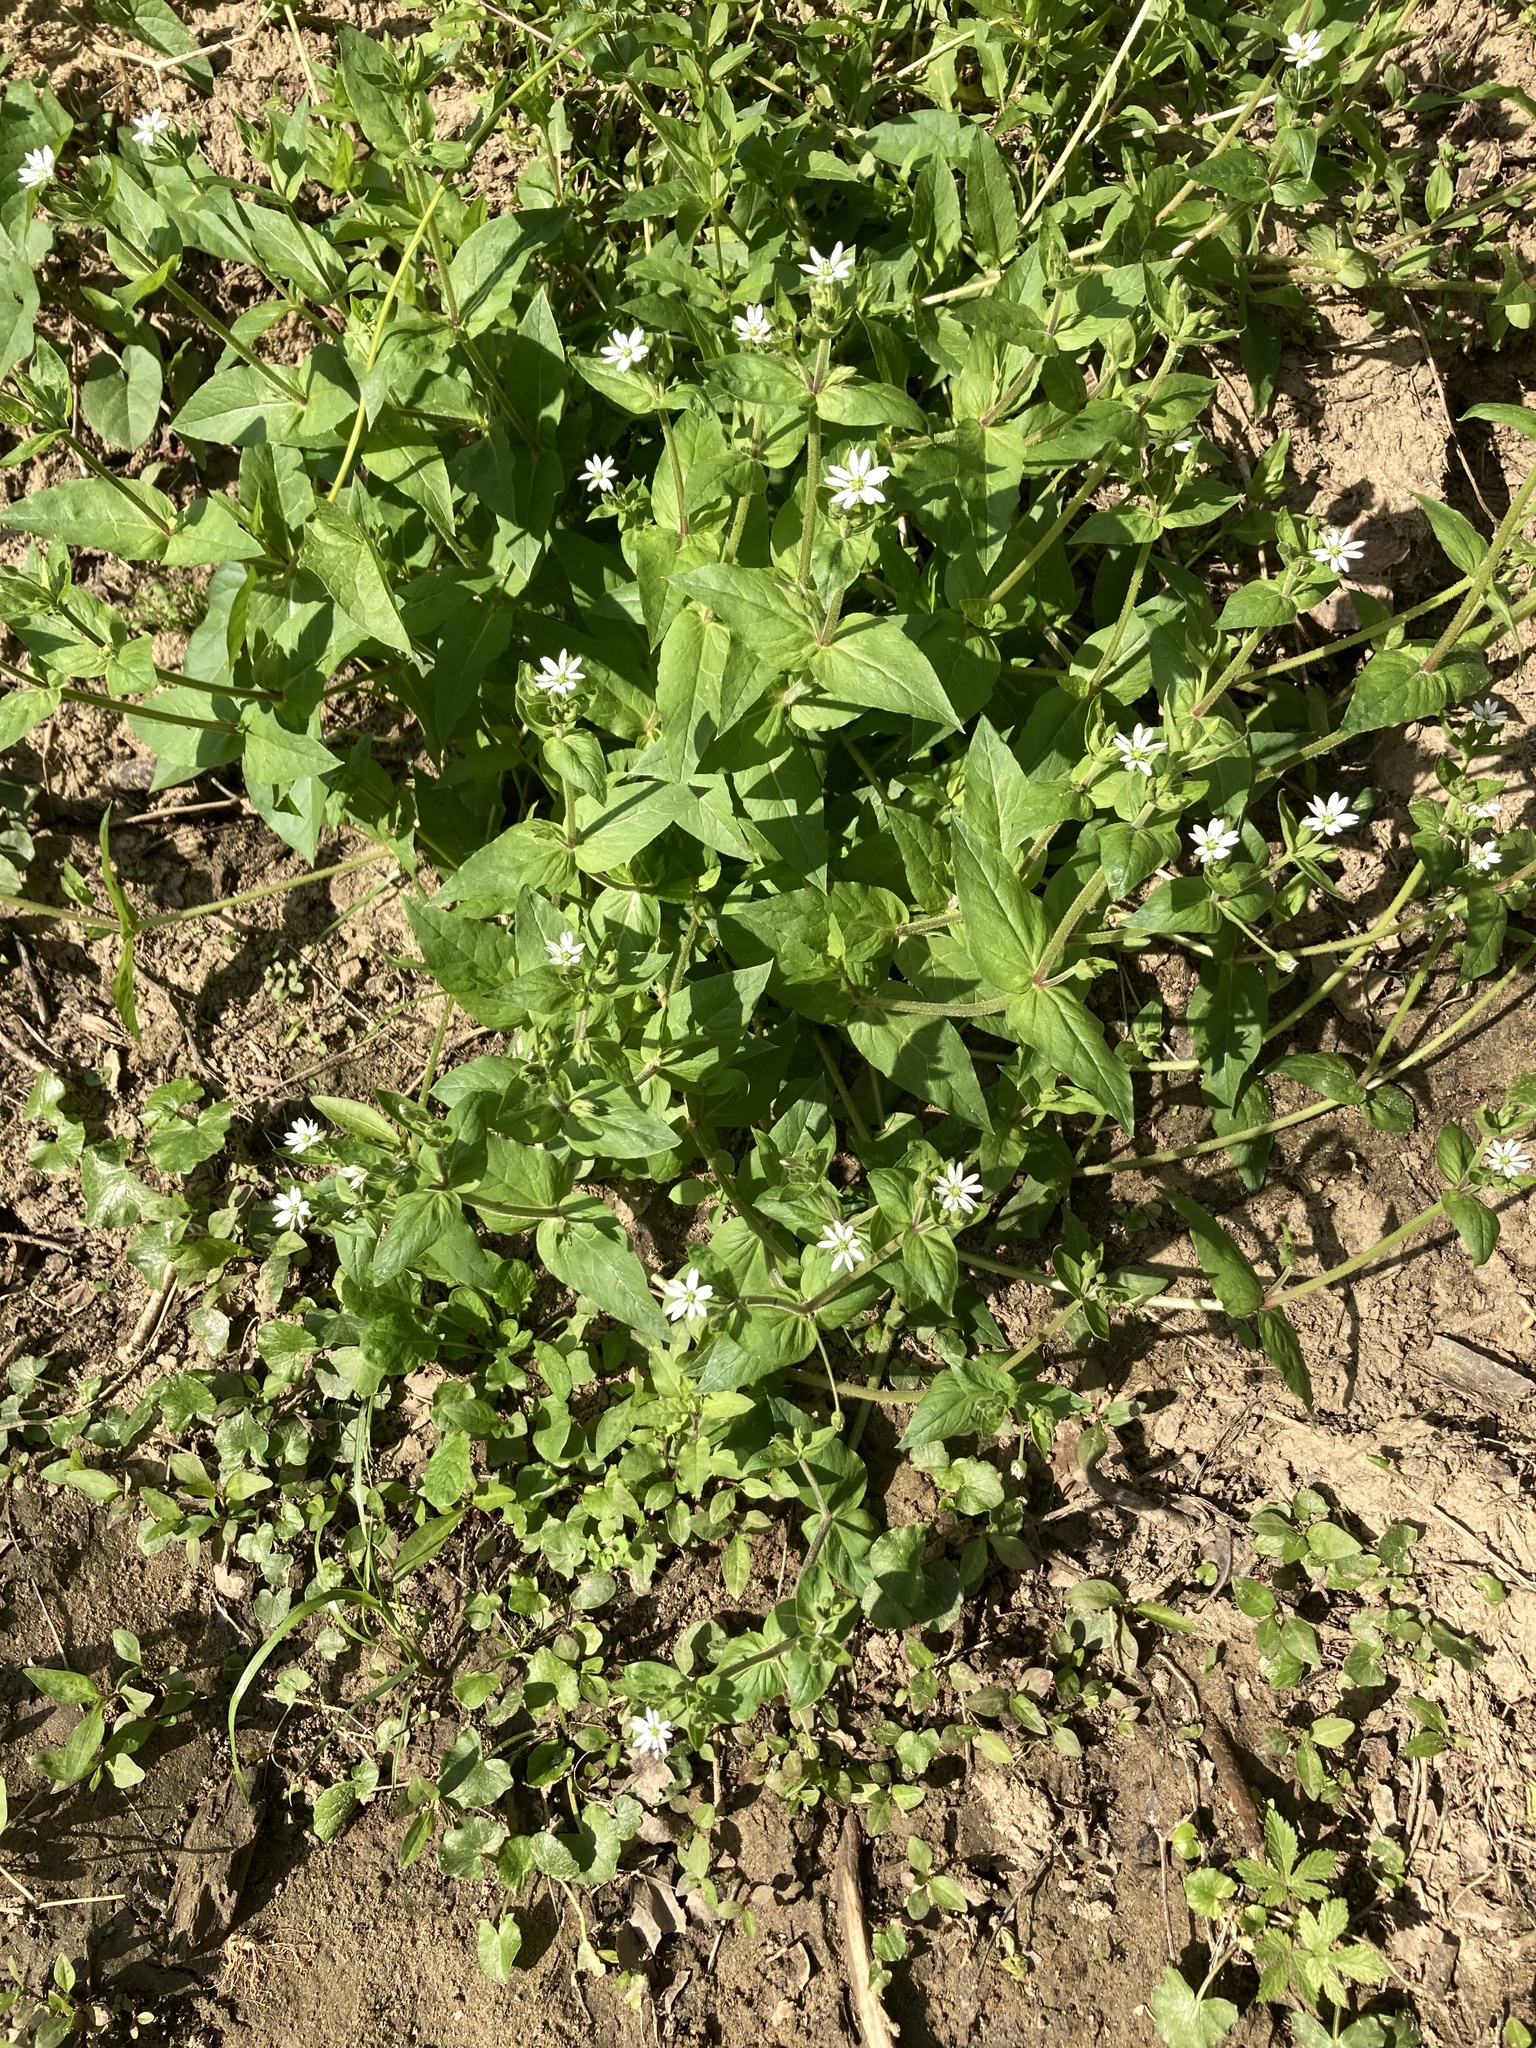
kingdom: Plantae
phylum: Tracheophyta
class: Magnoliopsida
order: Caryophyllales
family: Caryophyllaceae
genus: Stellaria
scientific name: Stellaria aquatica
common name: Water chickweed
